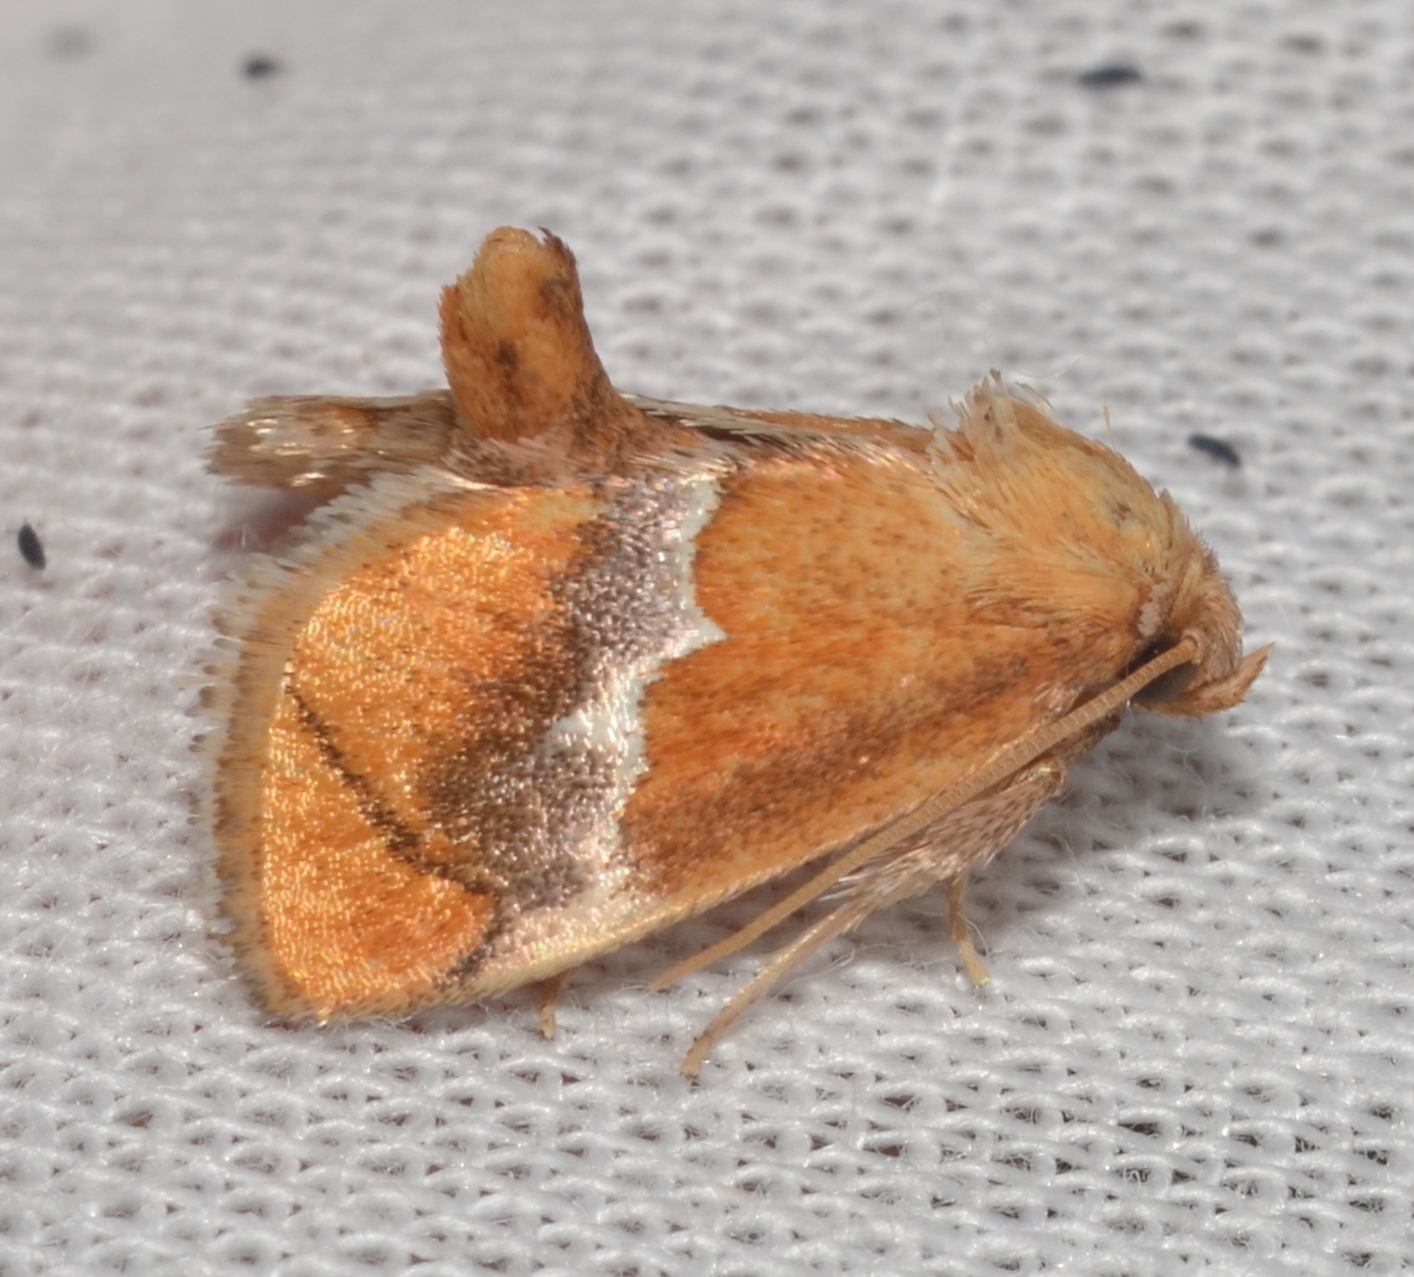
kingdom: Animalia
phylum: Arthropoda
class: Insecta
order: Lepidoptera
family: Limacodidae
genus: Lithacodes
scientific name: Lithacodes fasciola
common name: Yellow-shouldered slug moth
